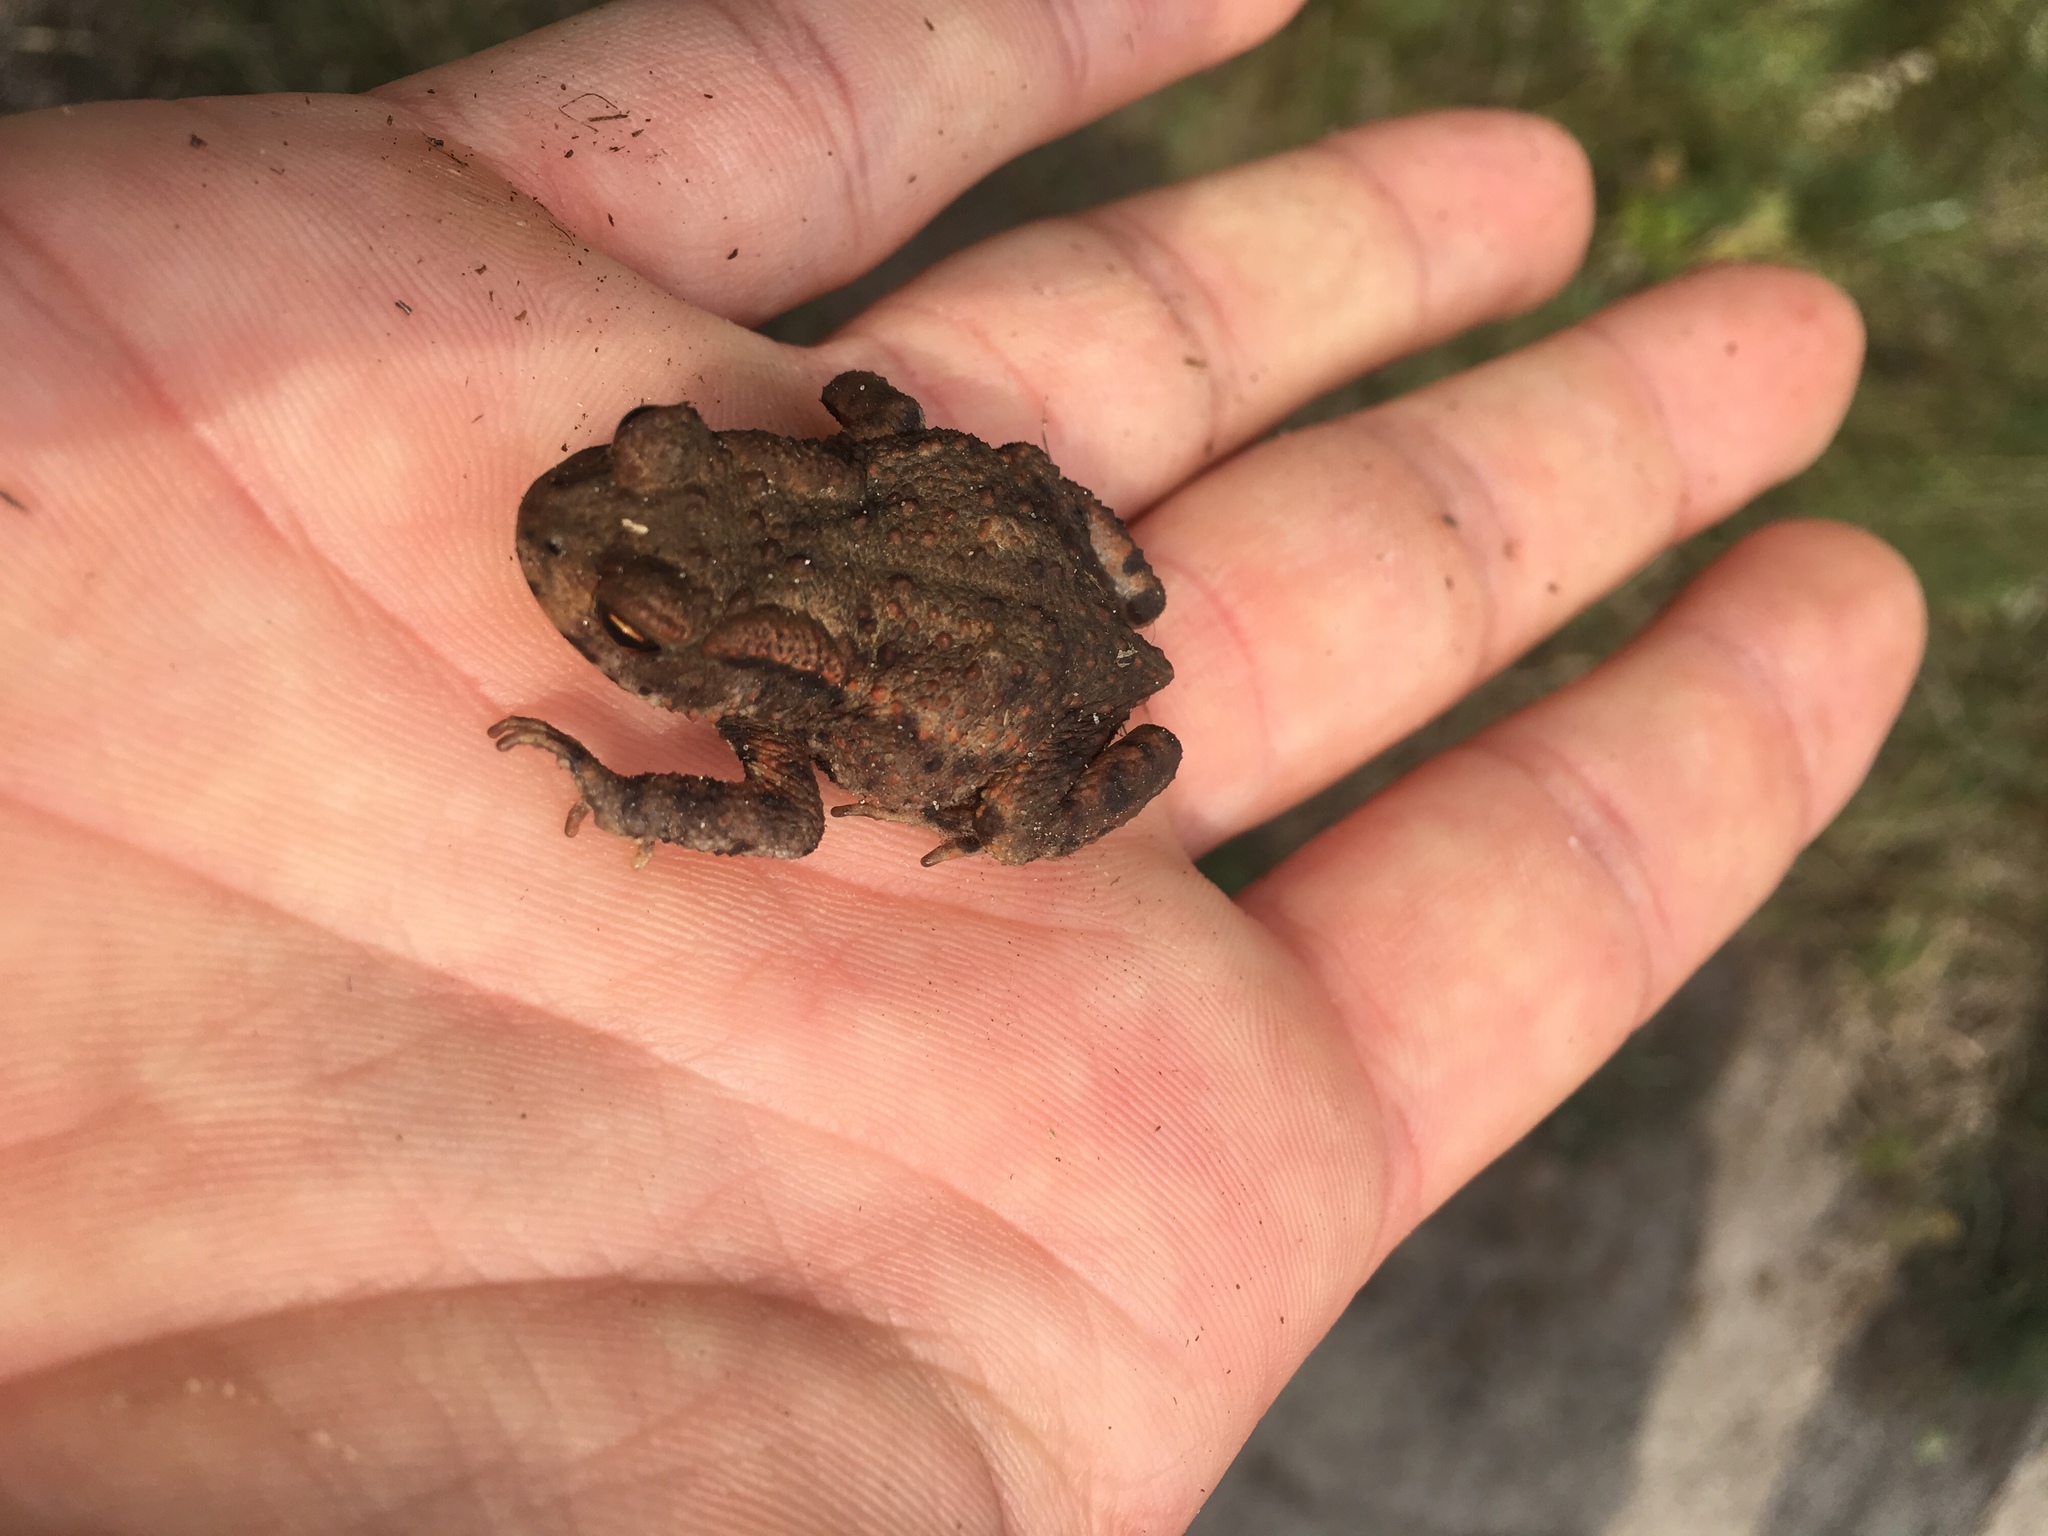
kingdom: Animalia
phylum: Chordata
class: Amphibia
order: Anura
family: Bufonidae
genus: Bufo
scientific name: Bufo bufo
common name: Common toad
